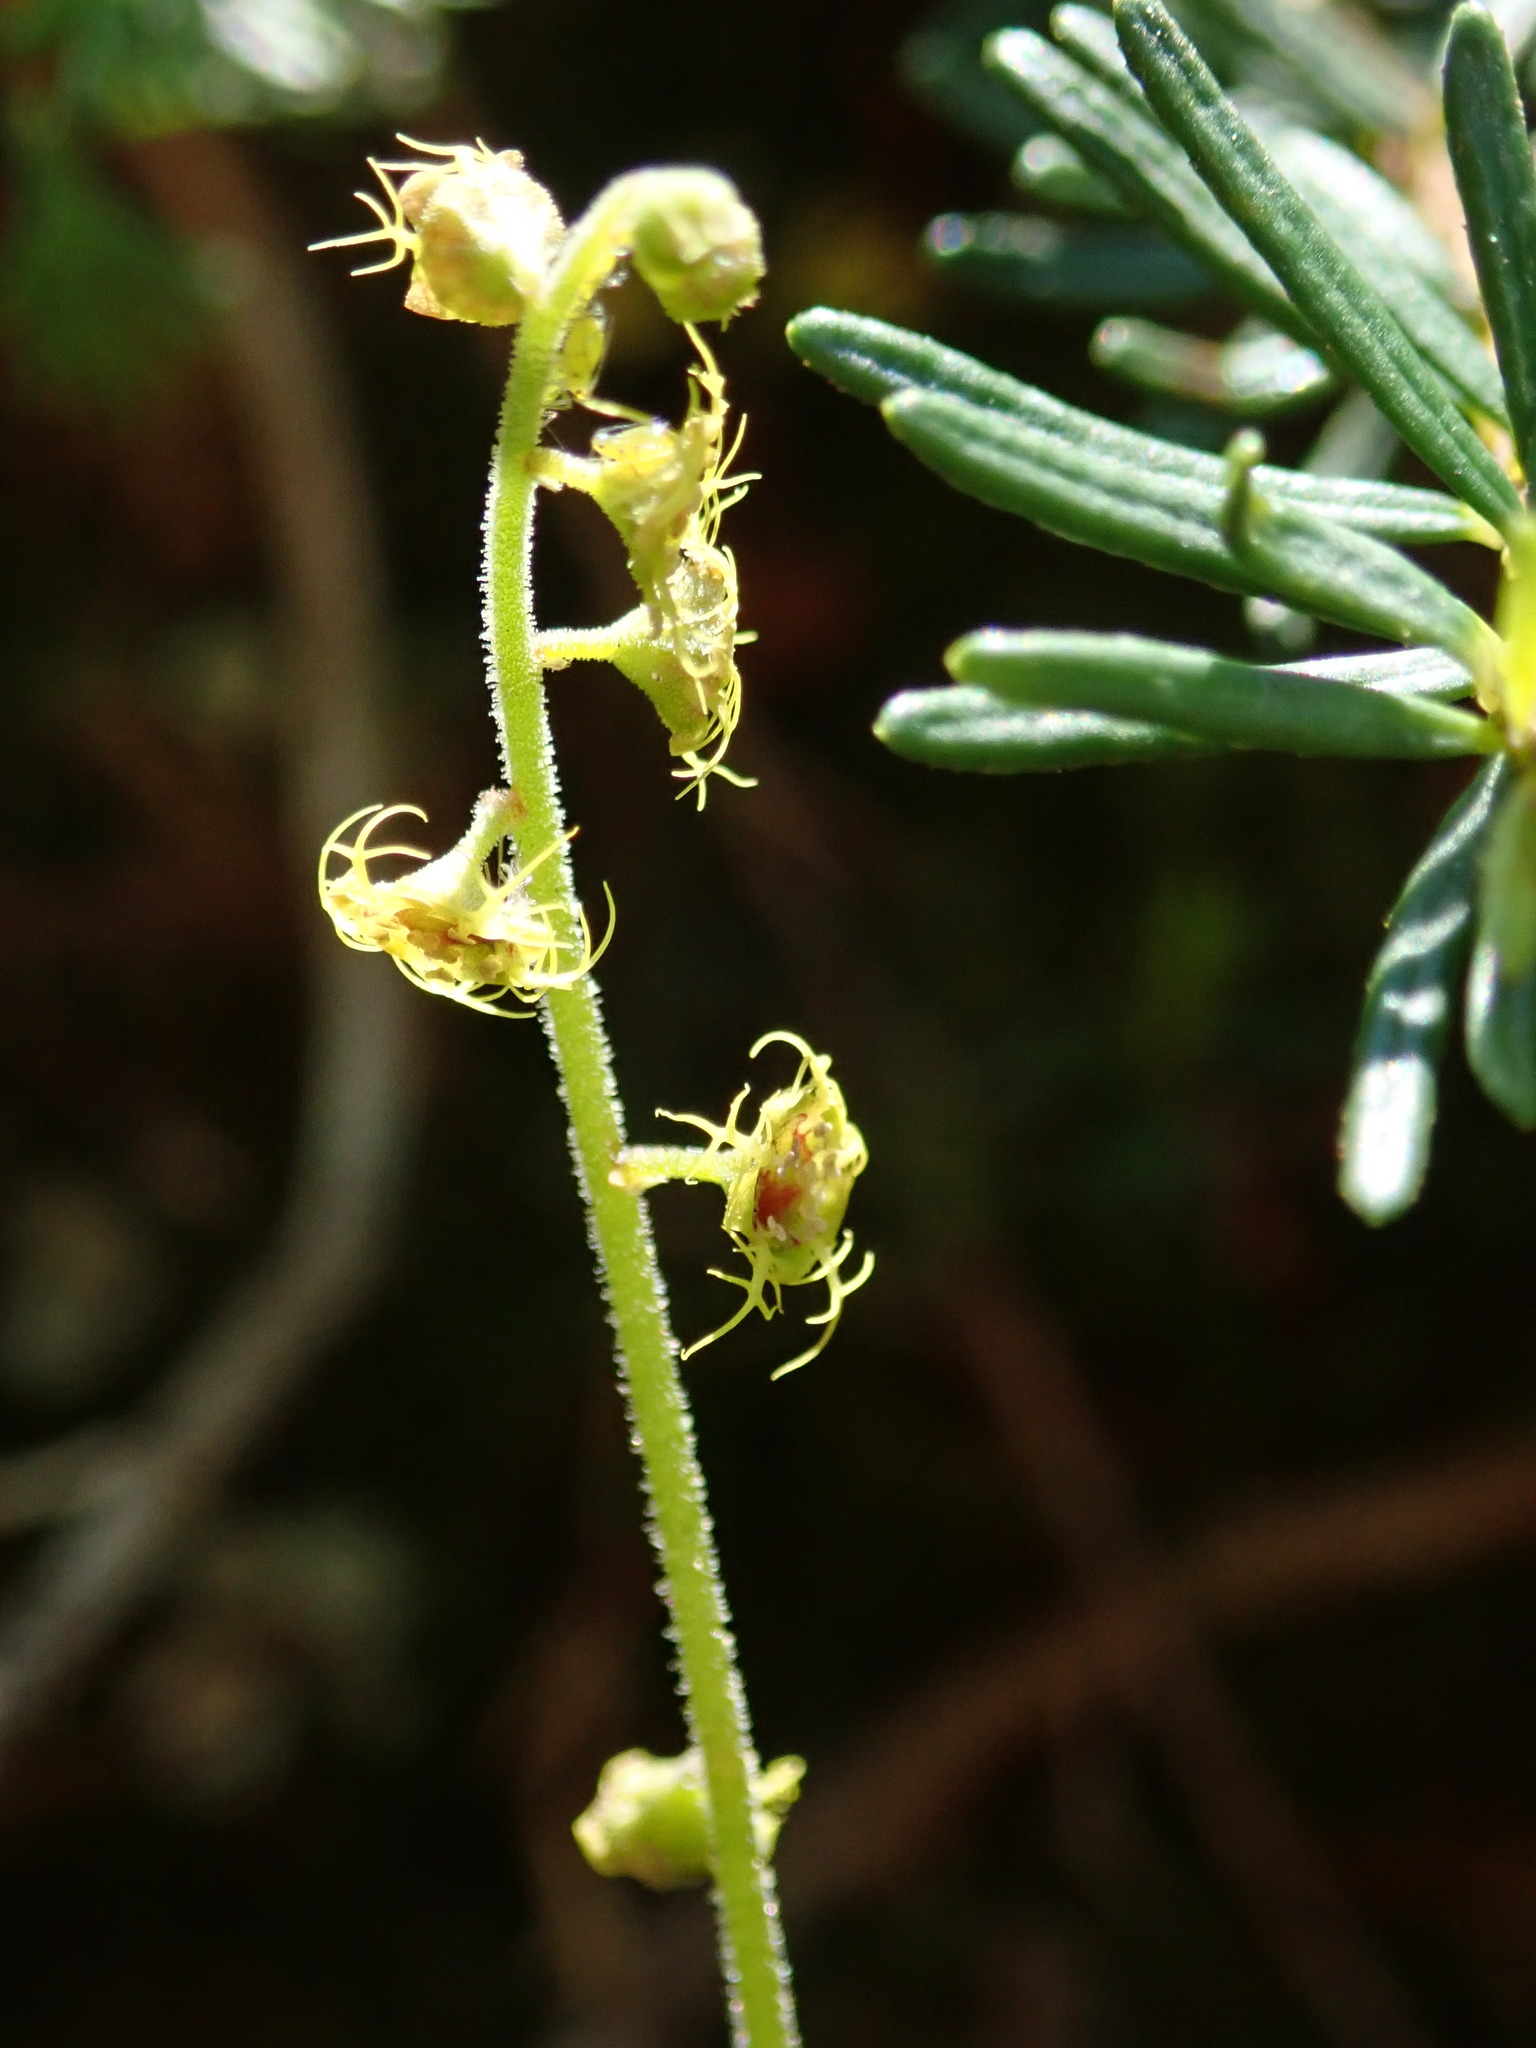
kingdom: Plantae
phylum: Tracheophyta
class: Magnoliopsida
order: Saxifragales
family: Saxifragaceae
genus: Pectiantia
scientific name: Pectiantia pentandra
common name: Alpine bishop's-cap
